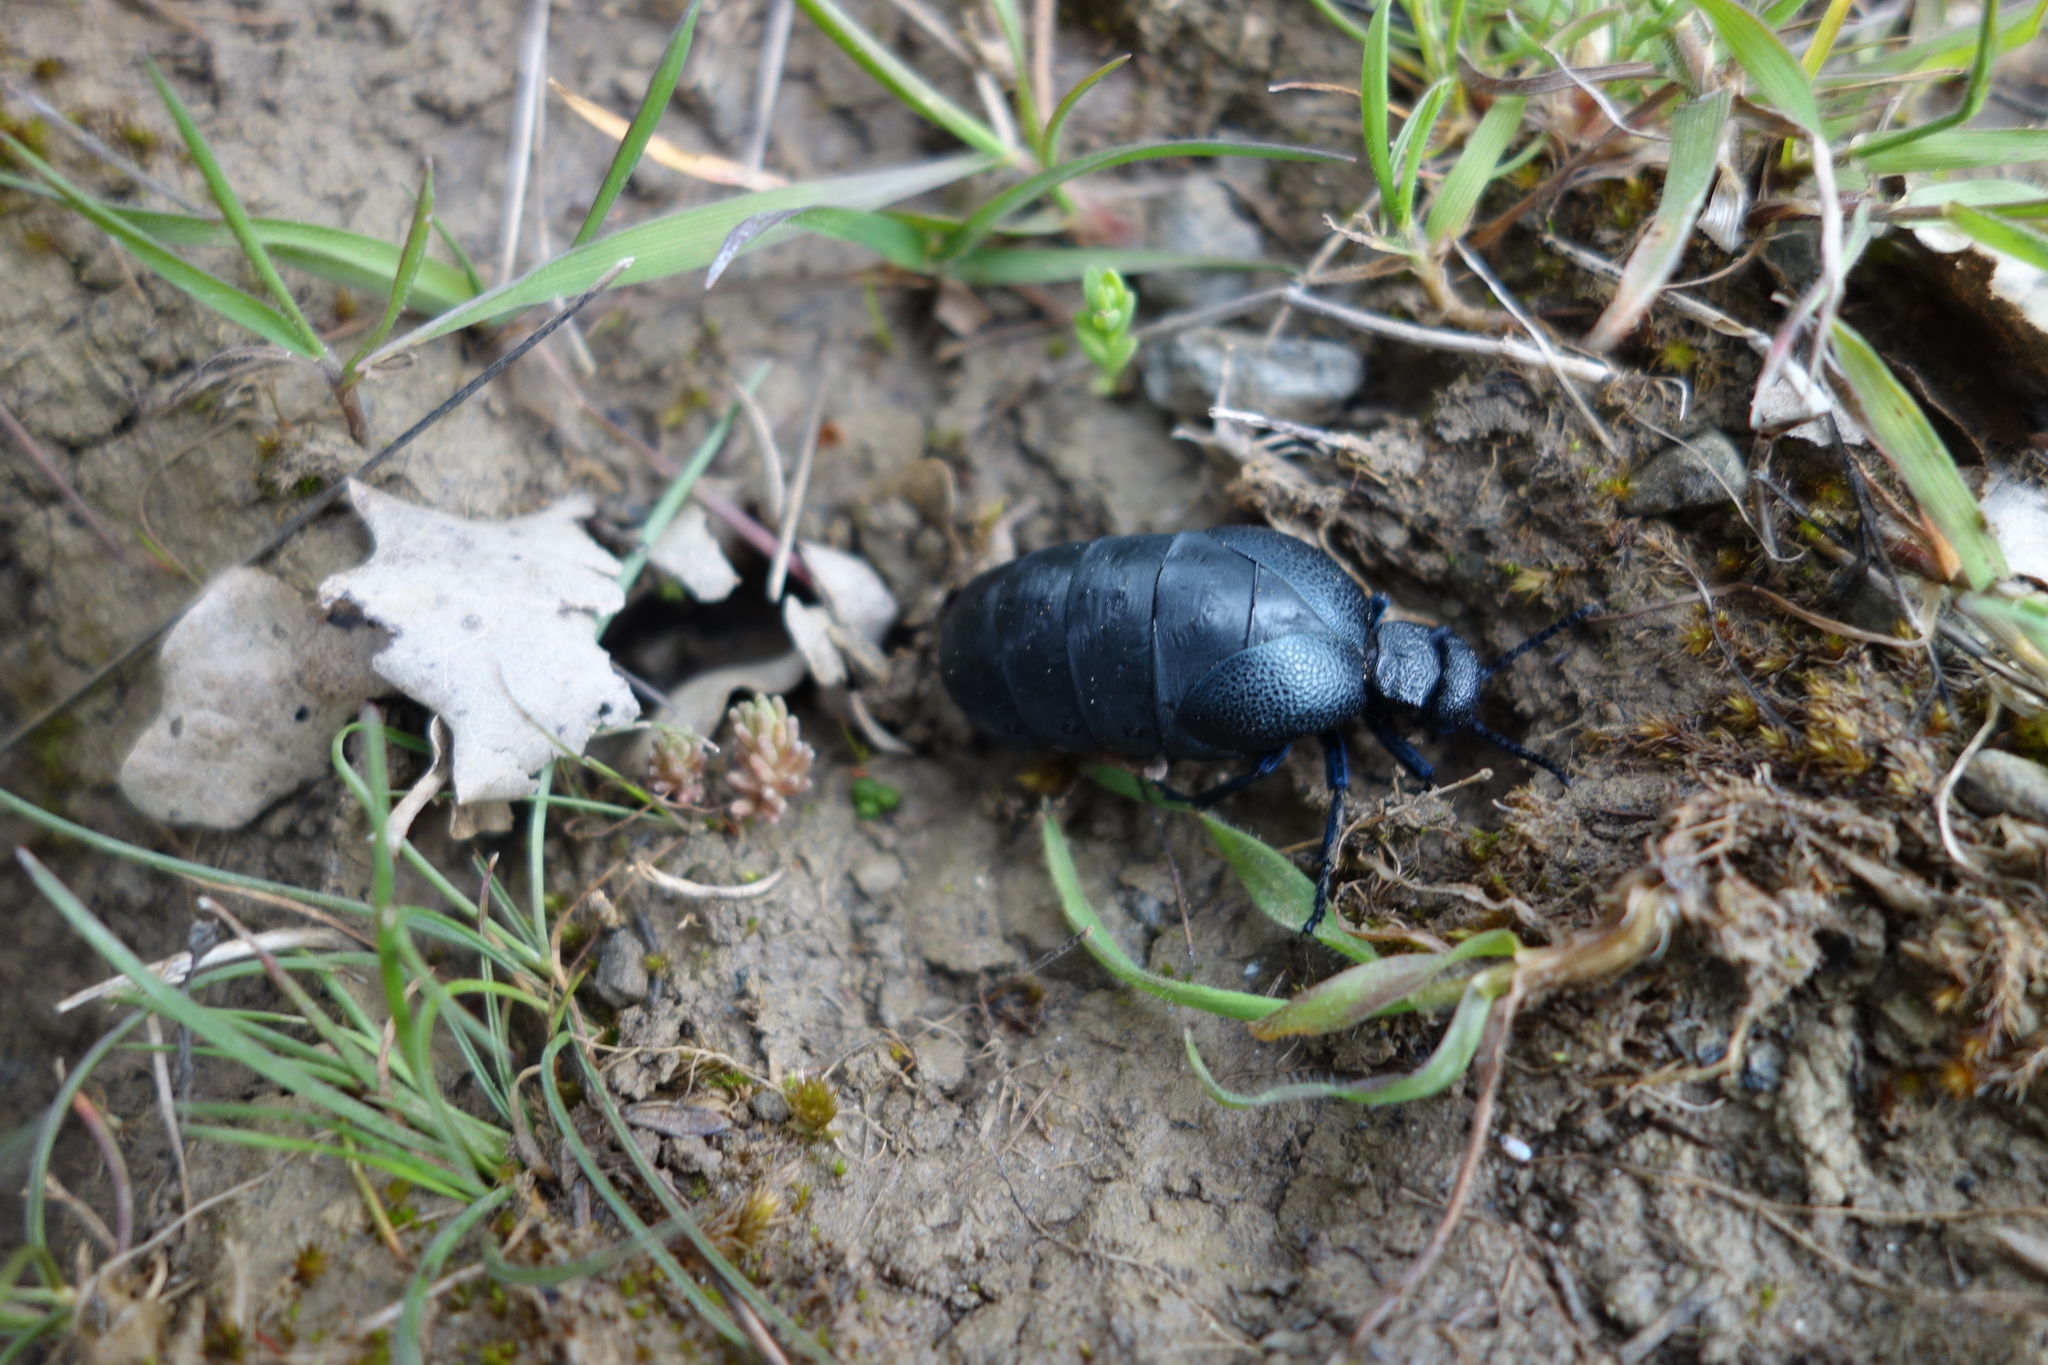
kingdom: Animalia
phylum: Arthropoda
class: Insecta
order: Coleoptera
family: Meloidae
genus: Meloe
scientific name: Meloe cicatricosus
